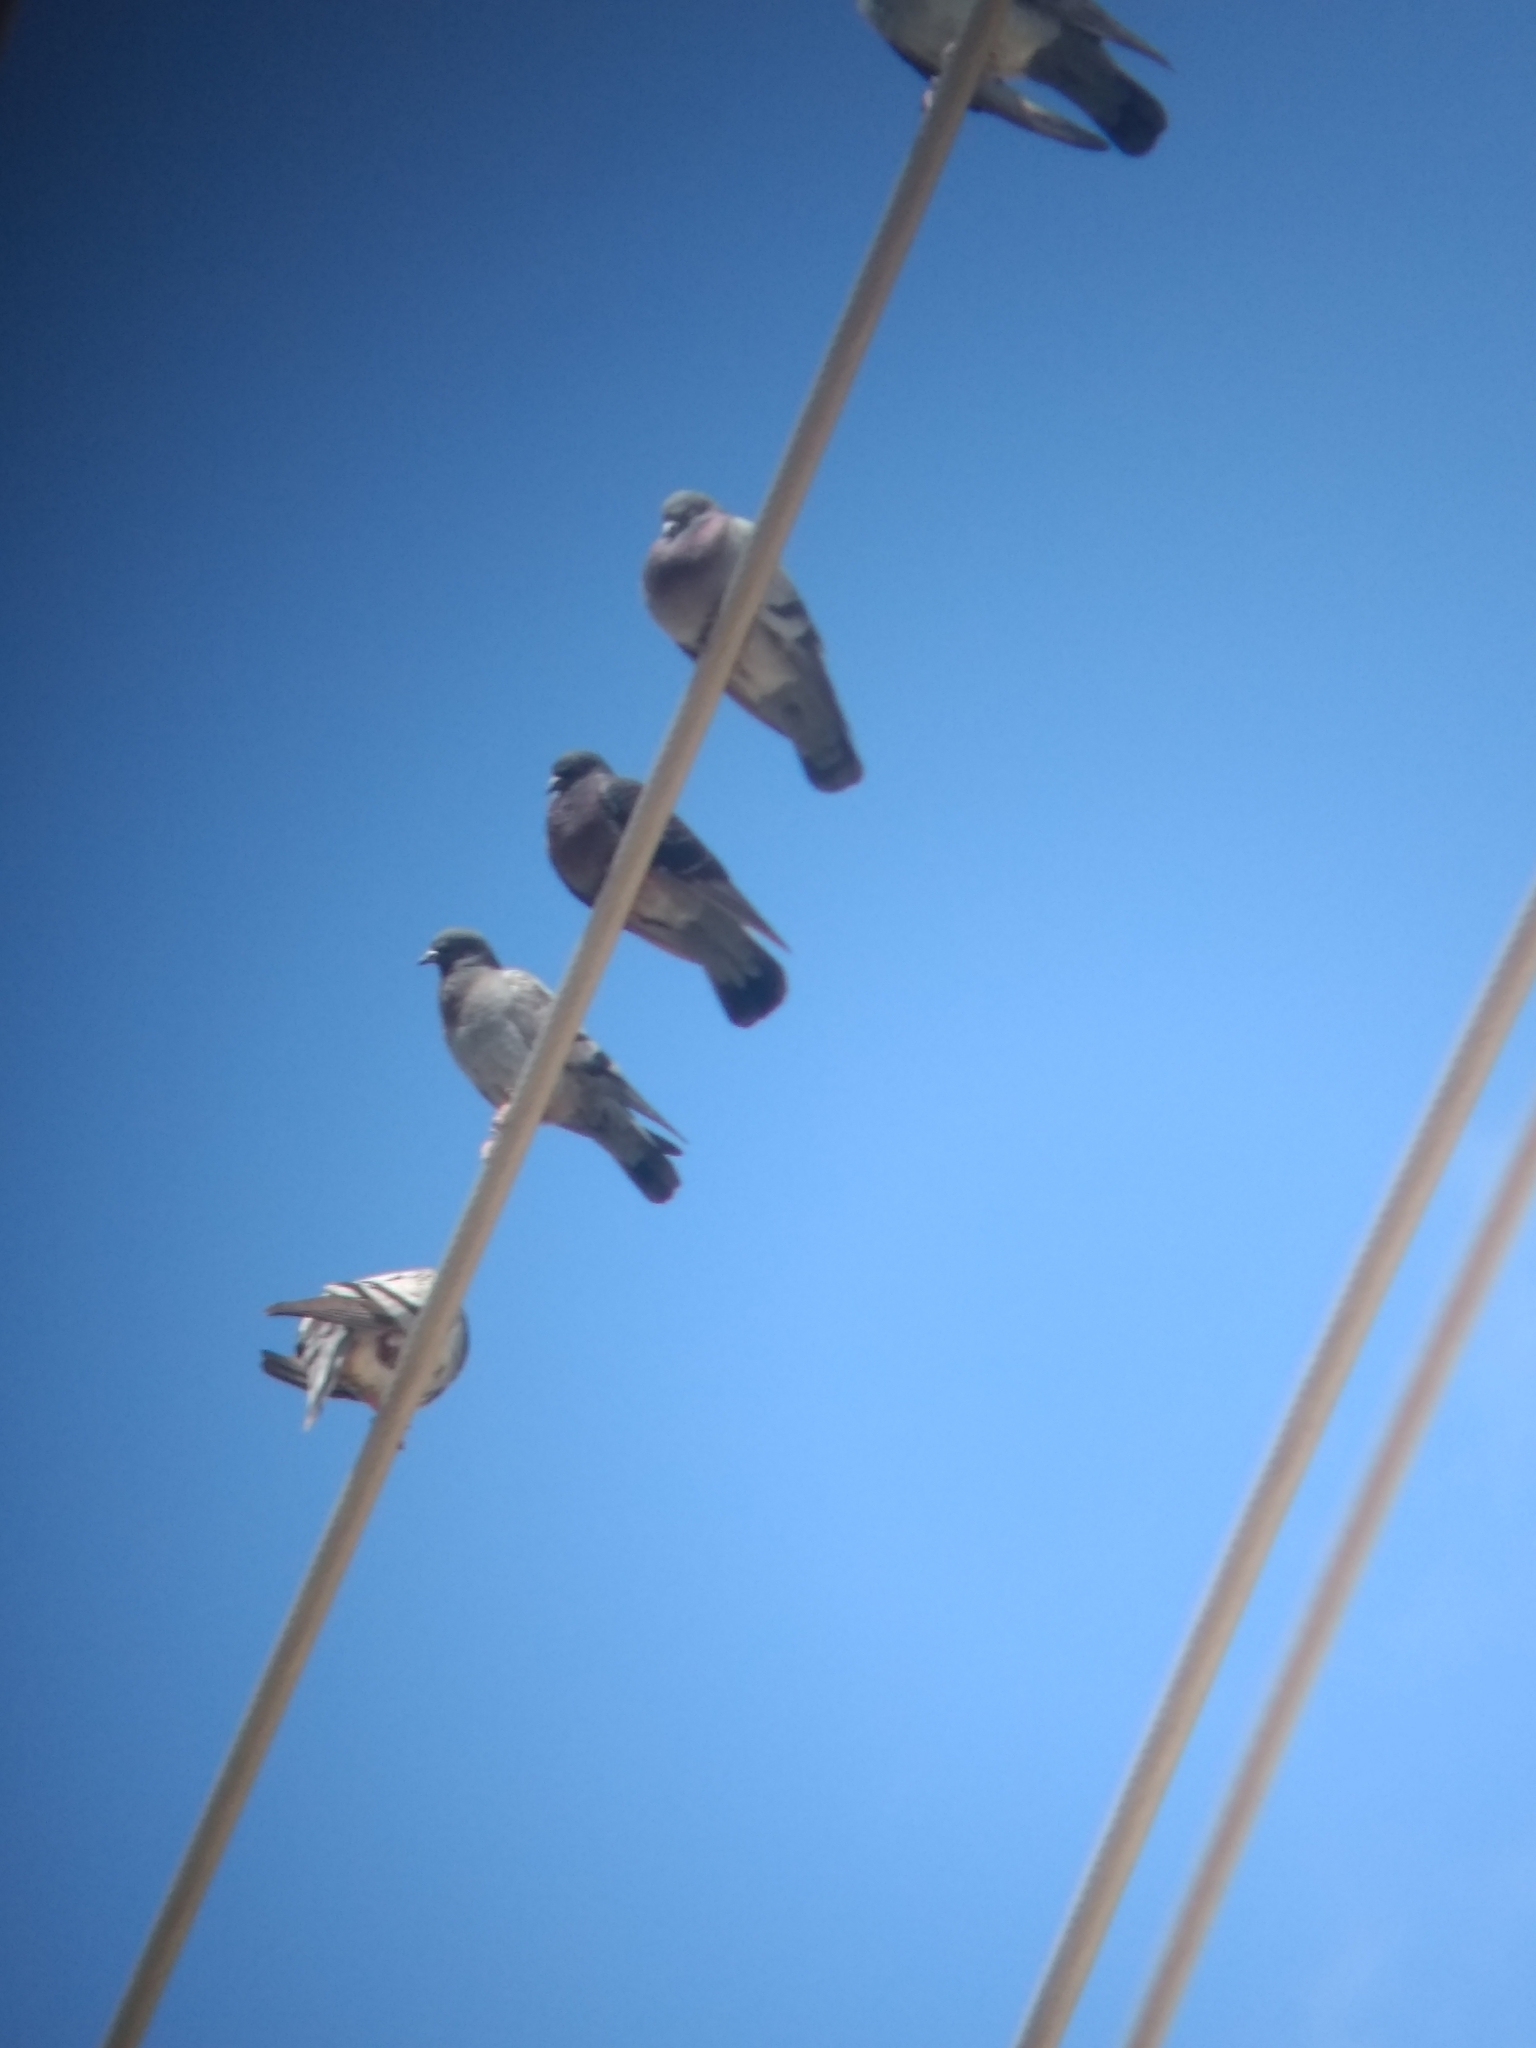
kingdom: Animalia
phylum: Chordata
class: Aves
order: Columbiformes
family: Columbidae
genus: Columba
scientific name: Columba livia
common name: Rock pigeon
